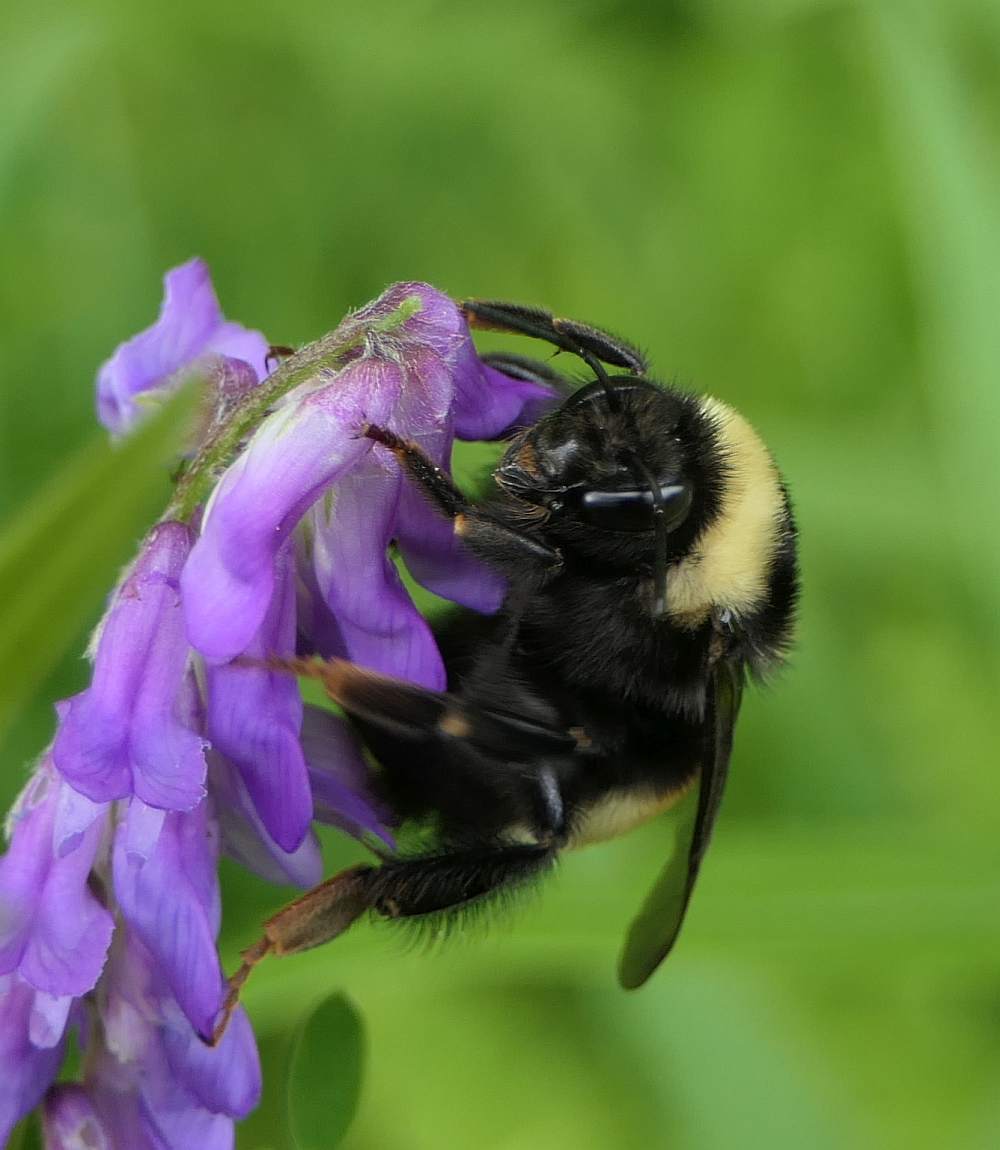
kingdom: Animalia
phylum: Arthropoda
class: Insecta
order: Hymenoptera
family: Apidae
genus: Bombus
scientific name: Bombus terricola
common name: Yellow-banded bumble bee
